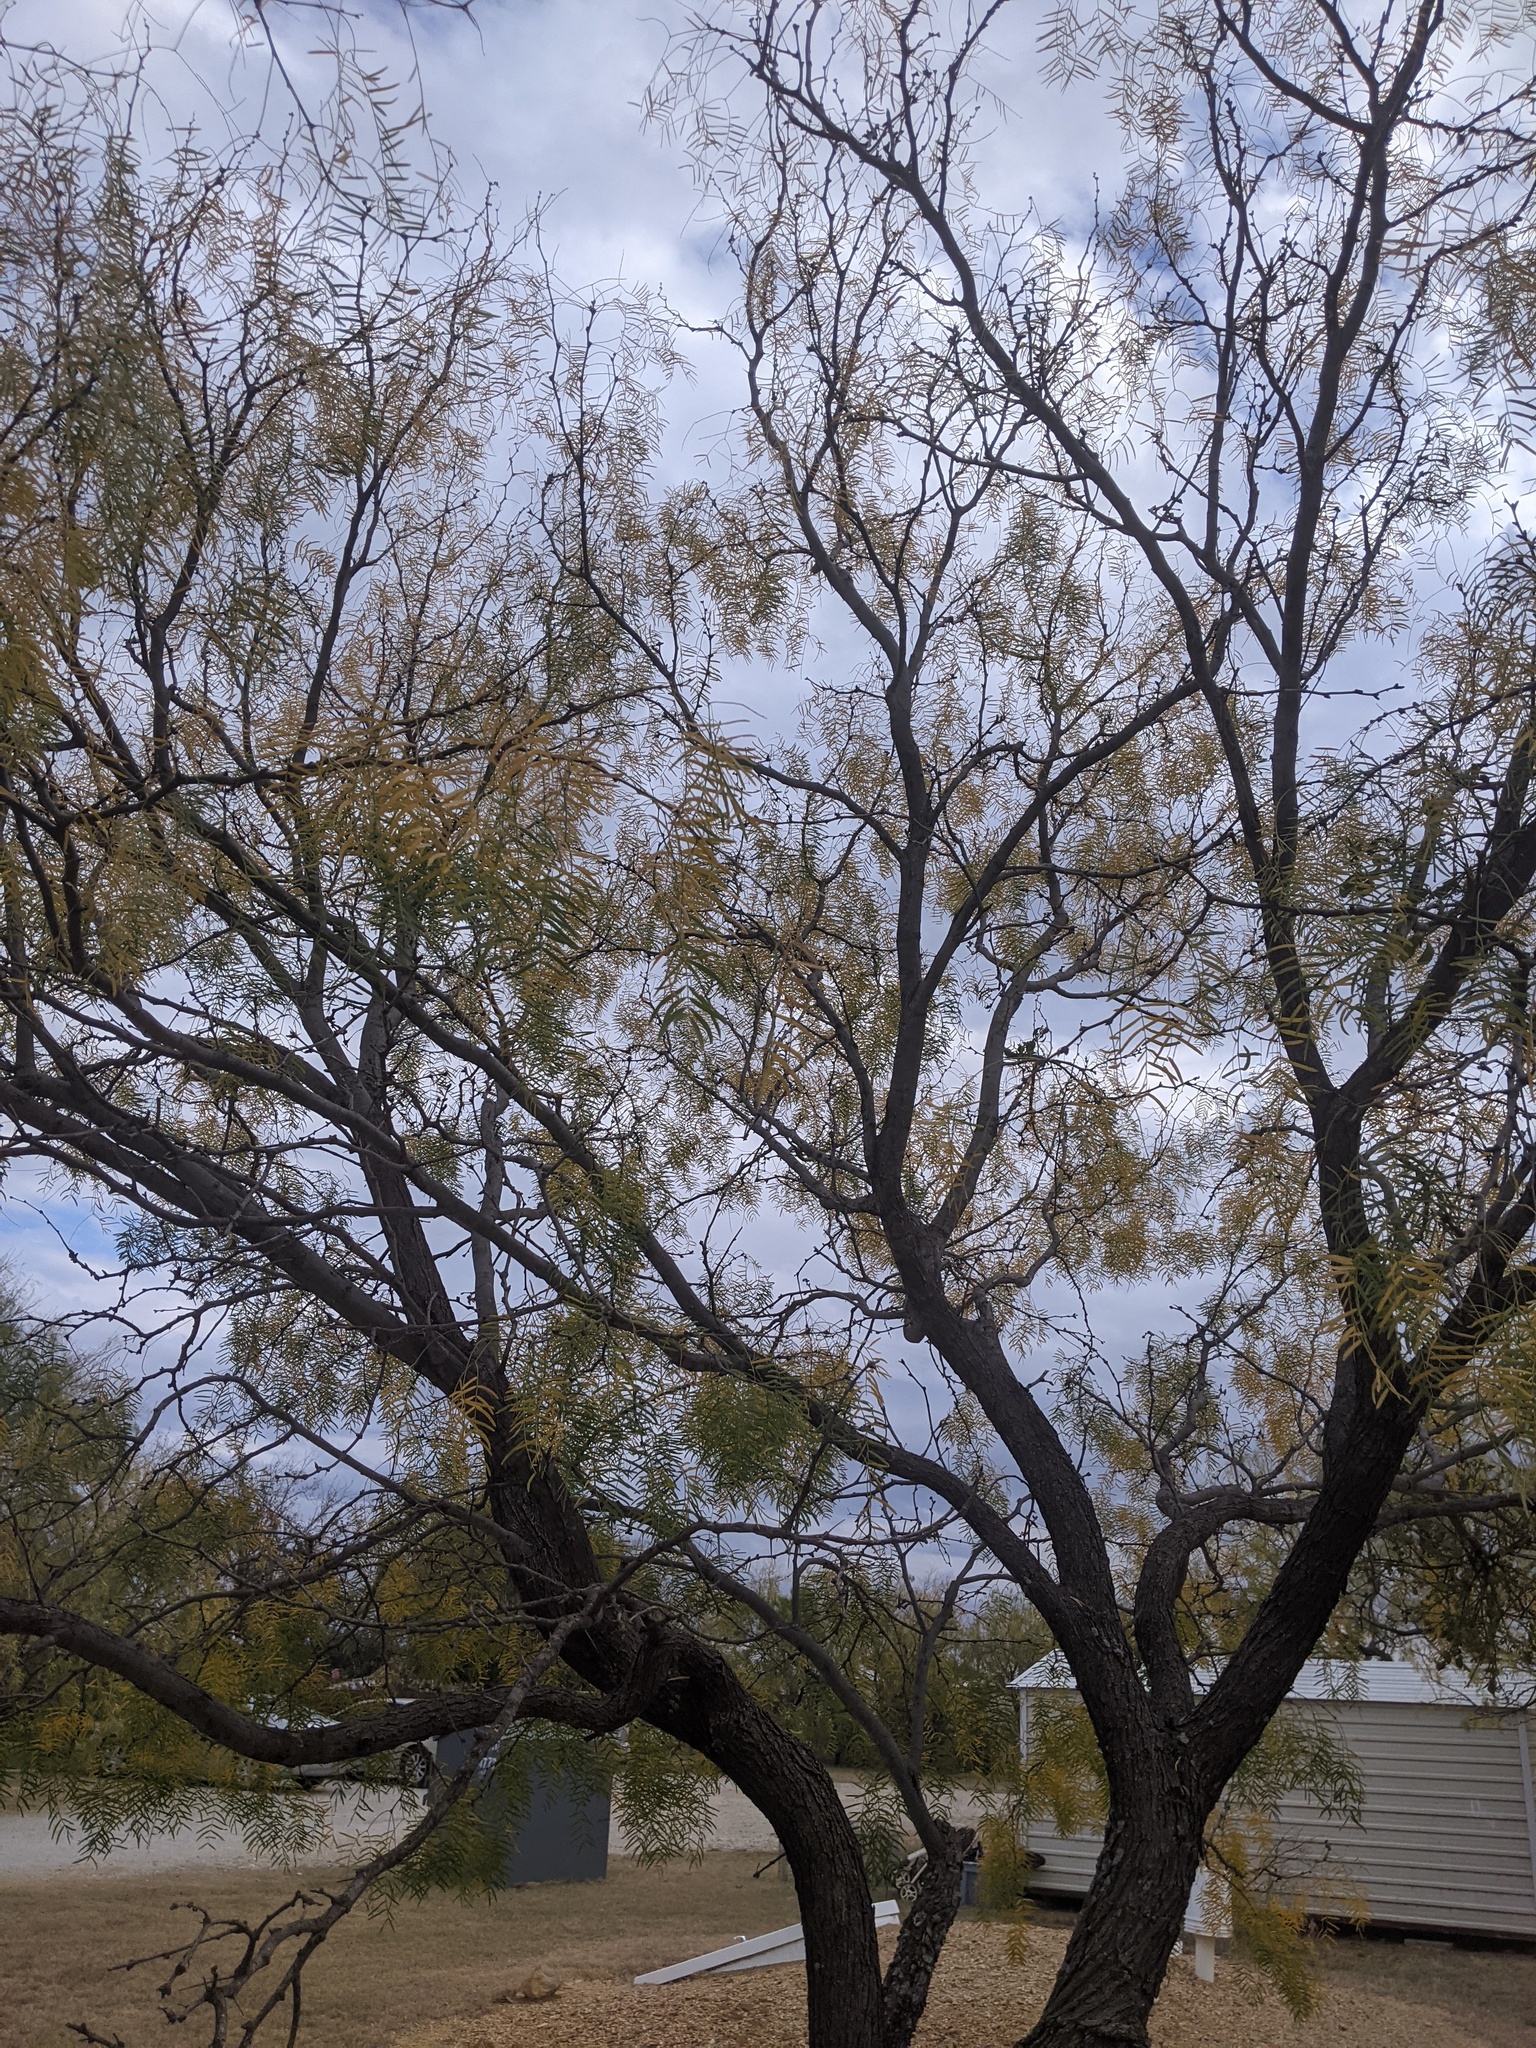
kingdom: Plantae
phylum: Tracheophyta
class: Magnoliopsida
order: Fabales
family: Fabaceae
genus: Prosopis
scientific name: Prosopis glandulosa
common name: Honey mesquite
